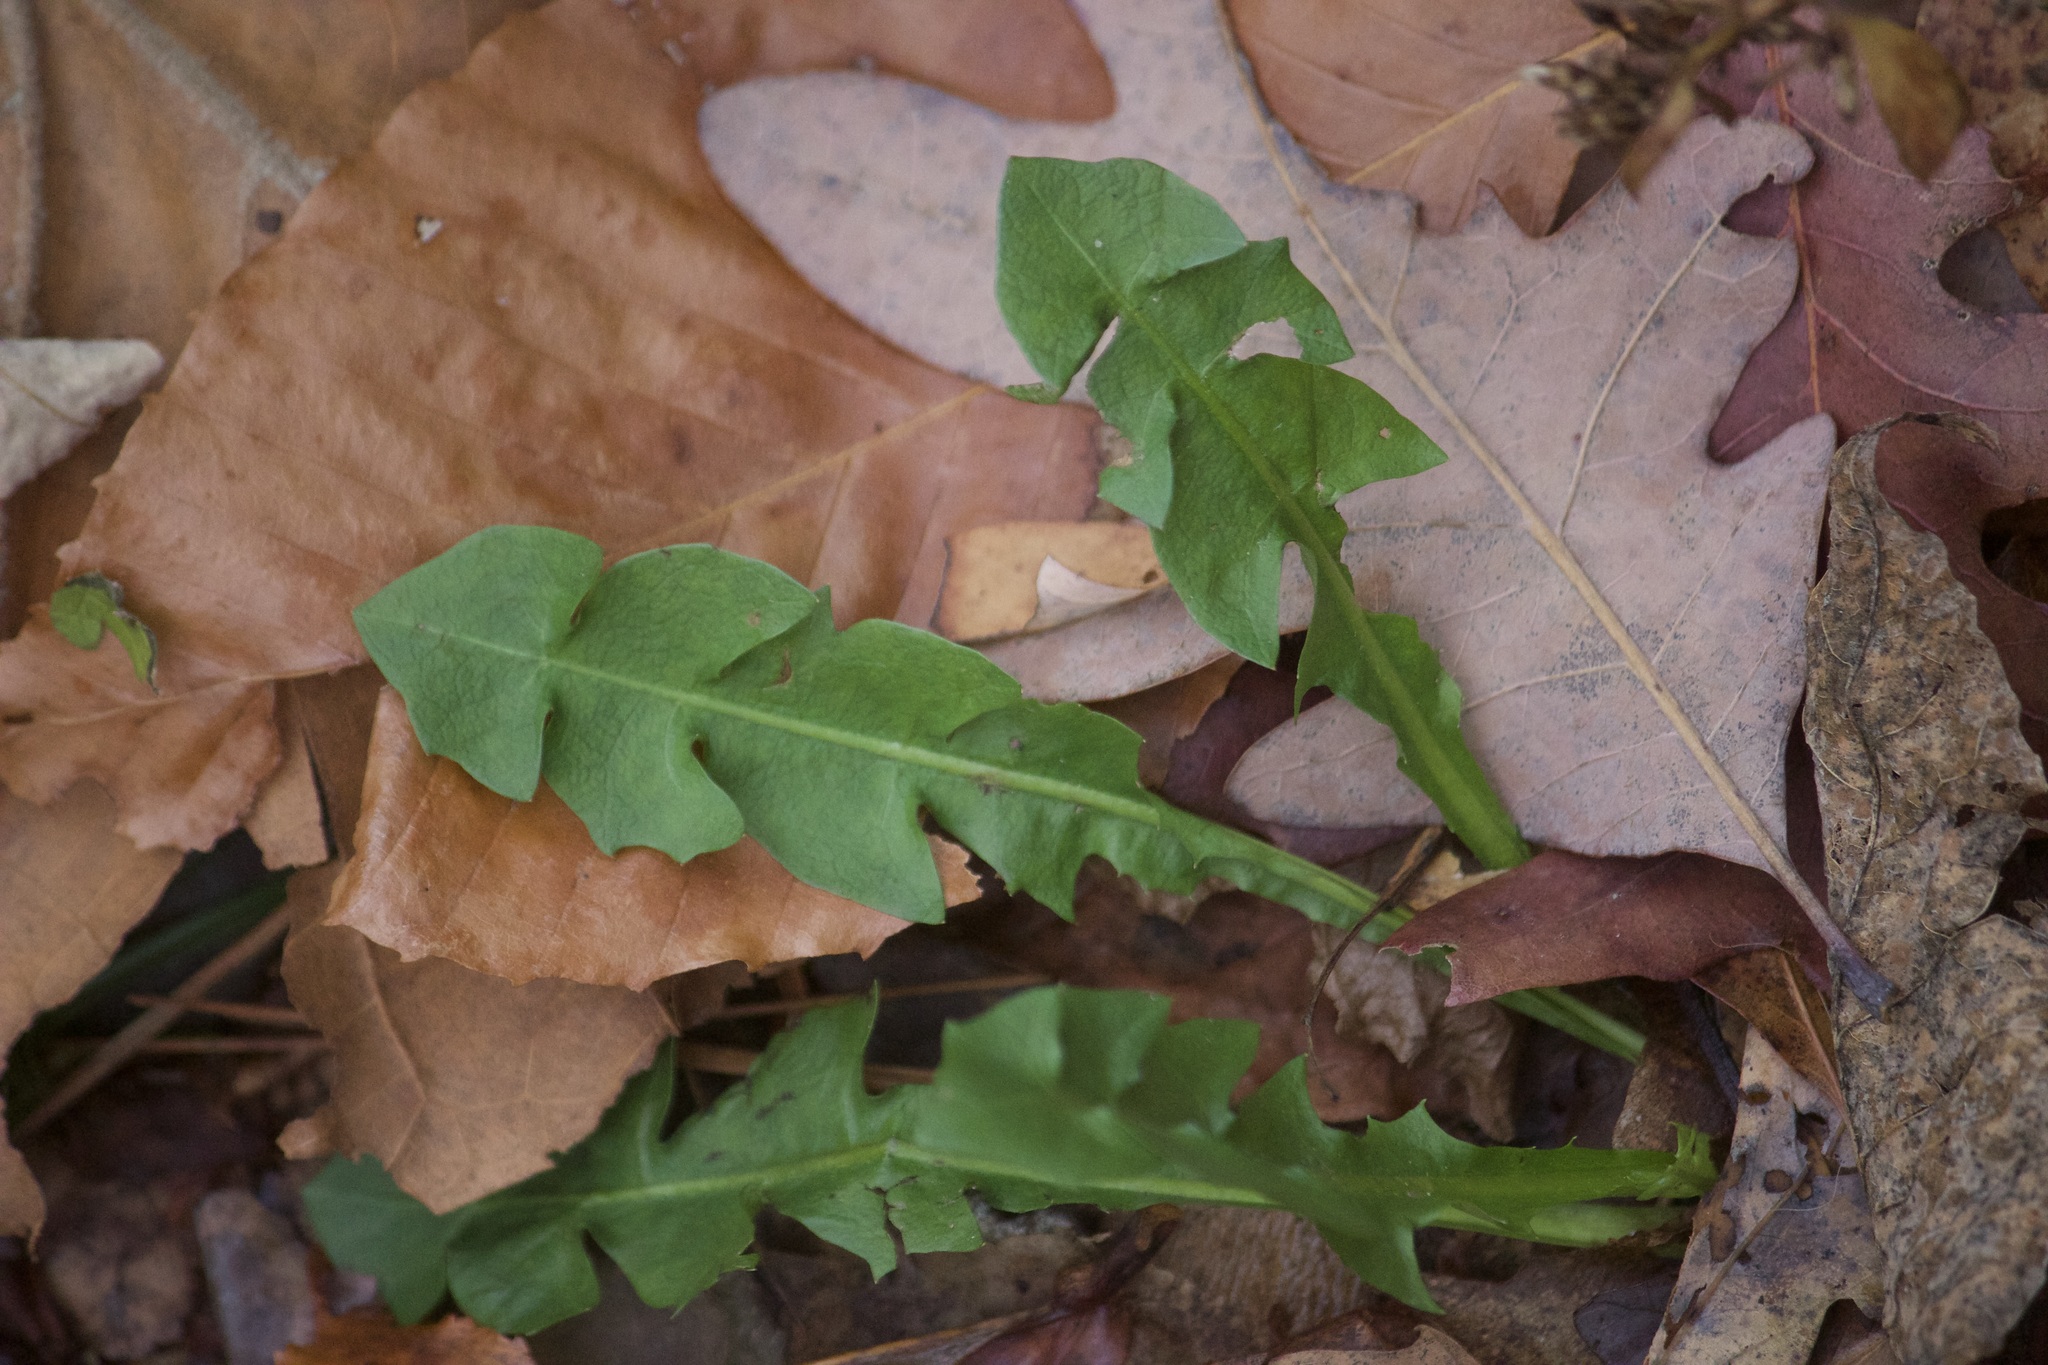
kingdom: Plantae
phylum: Tracheophyta
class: Magnoliopsida
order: Asterales
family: Asteraceae
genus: Taraxacum
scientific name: Taraxacum officinale
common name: Common dandelion
